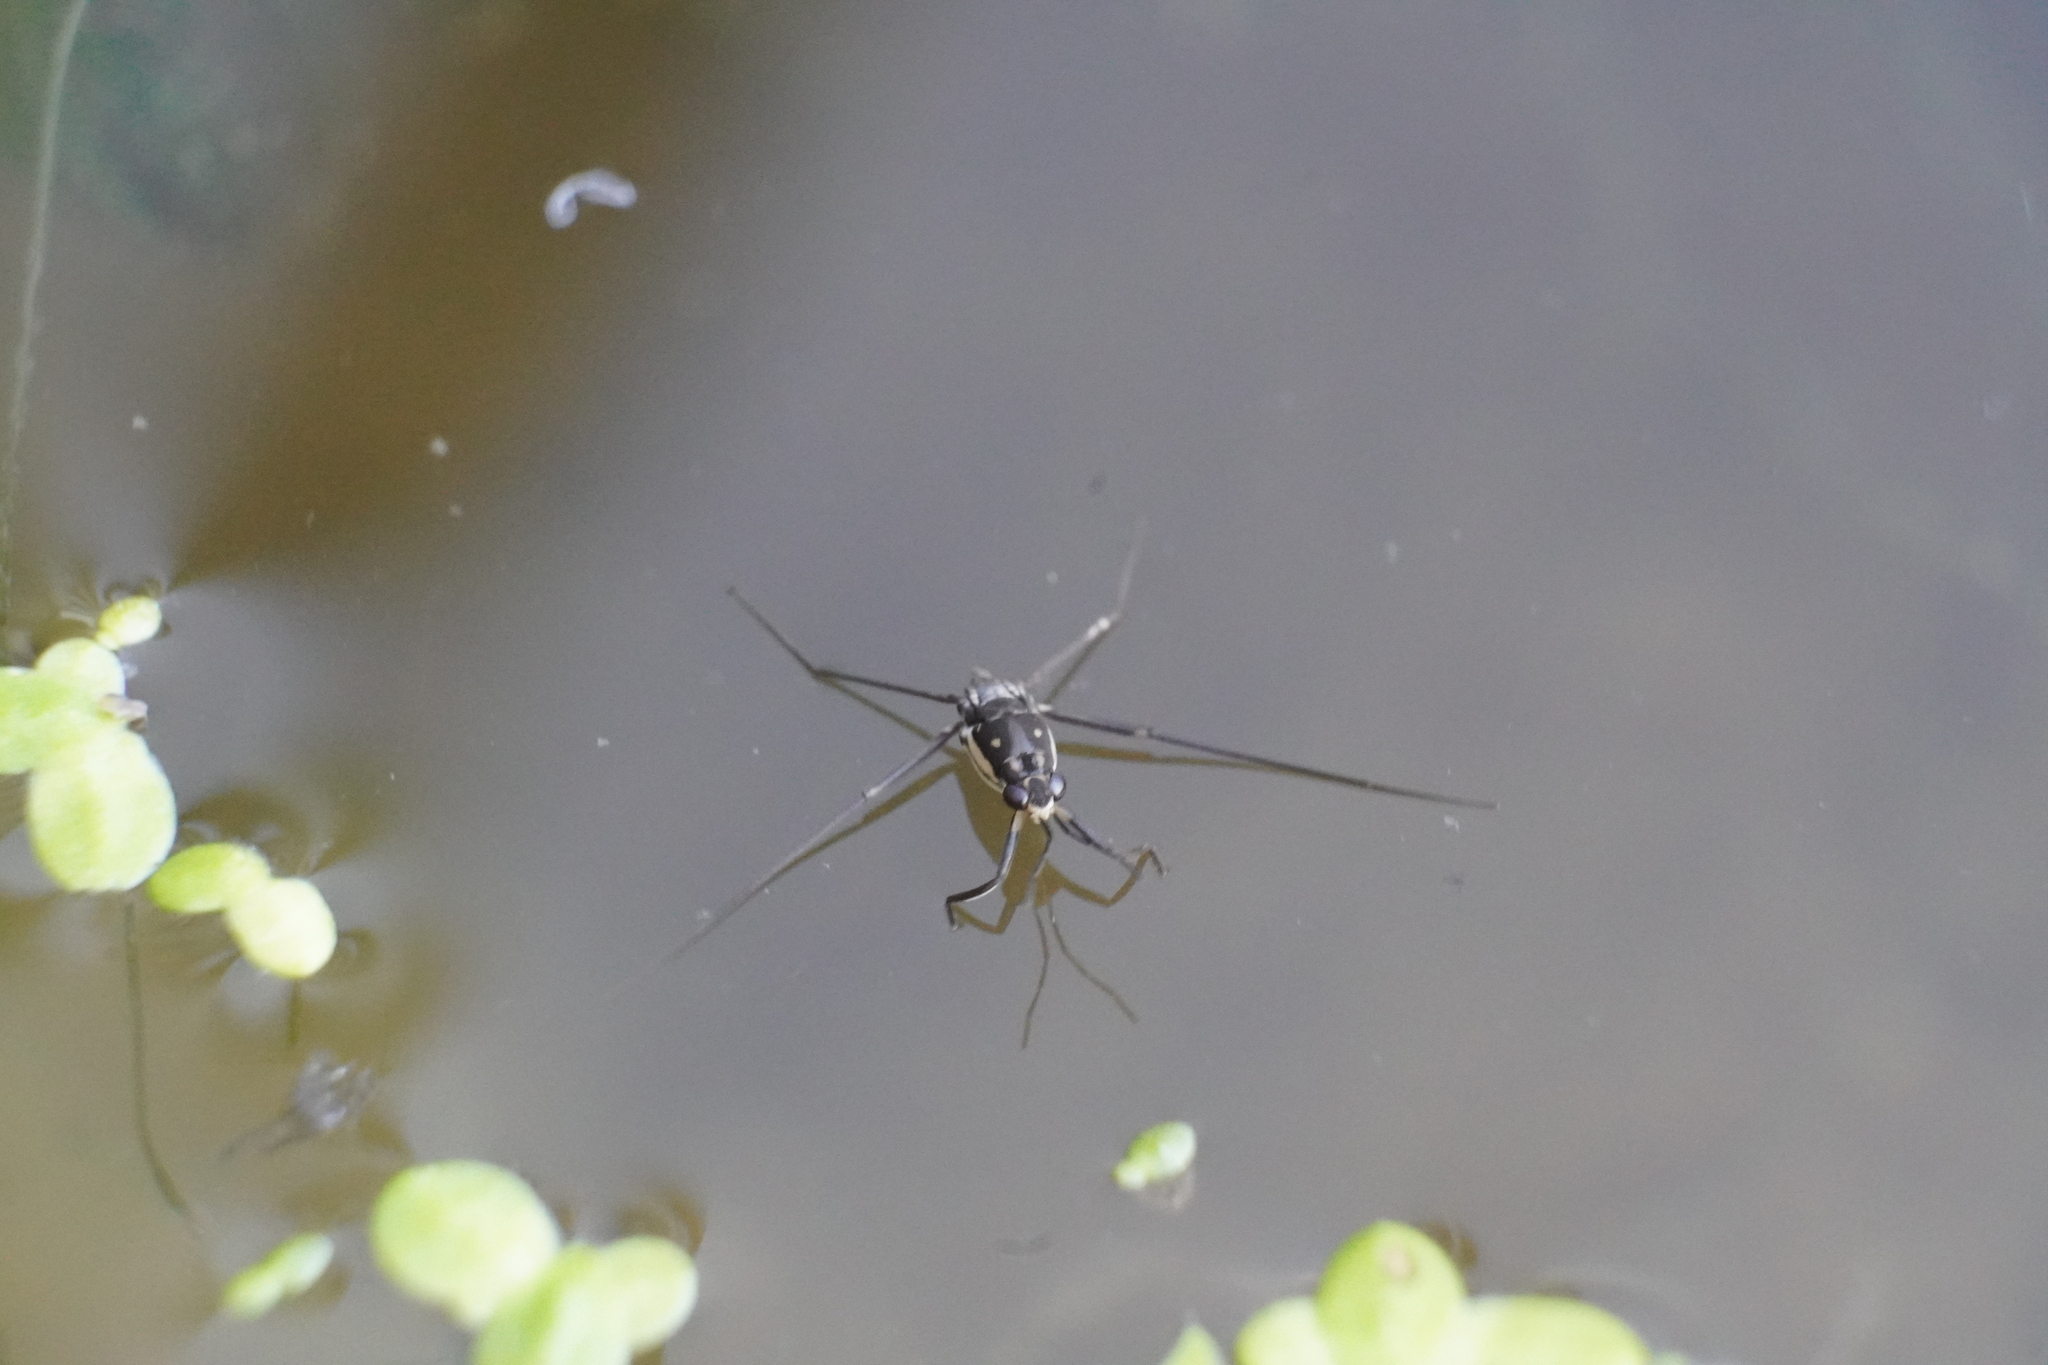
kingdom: Animalia
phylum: Arthropoda
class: Insecta
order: Hemiptera
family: Gerridae
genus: Trepobates
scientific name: Trepobates subnitidus
